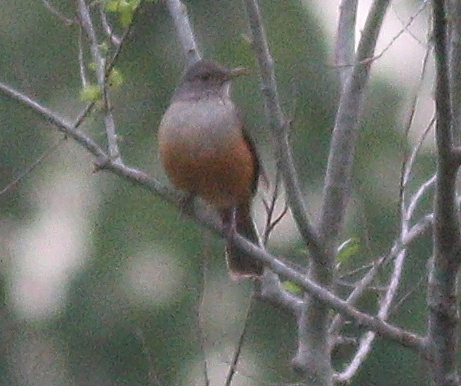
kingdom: Animalia
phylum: Chordata
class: Aves
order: Passeriformes
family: Turdidae
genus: Turdus
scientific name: Turdus rufiventris
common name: Rufous-bellied thrush
